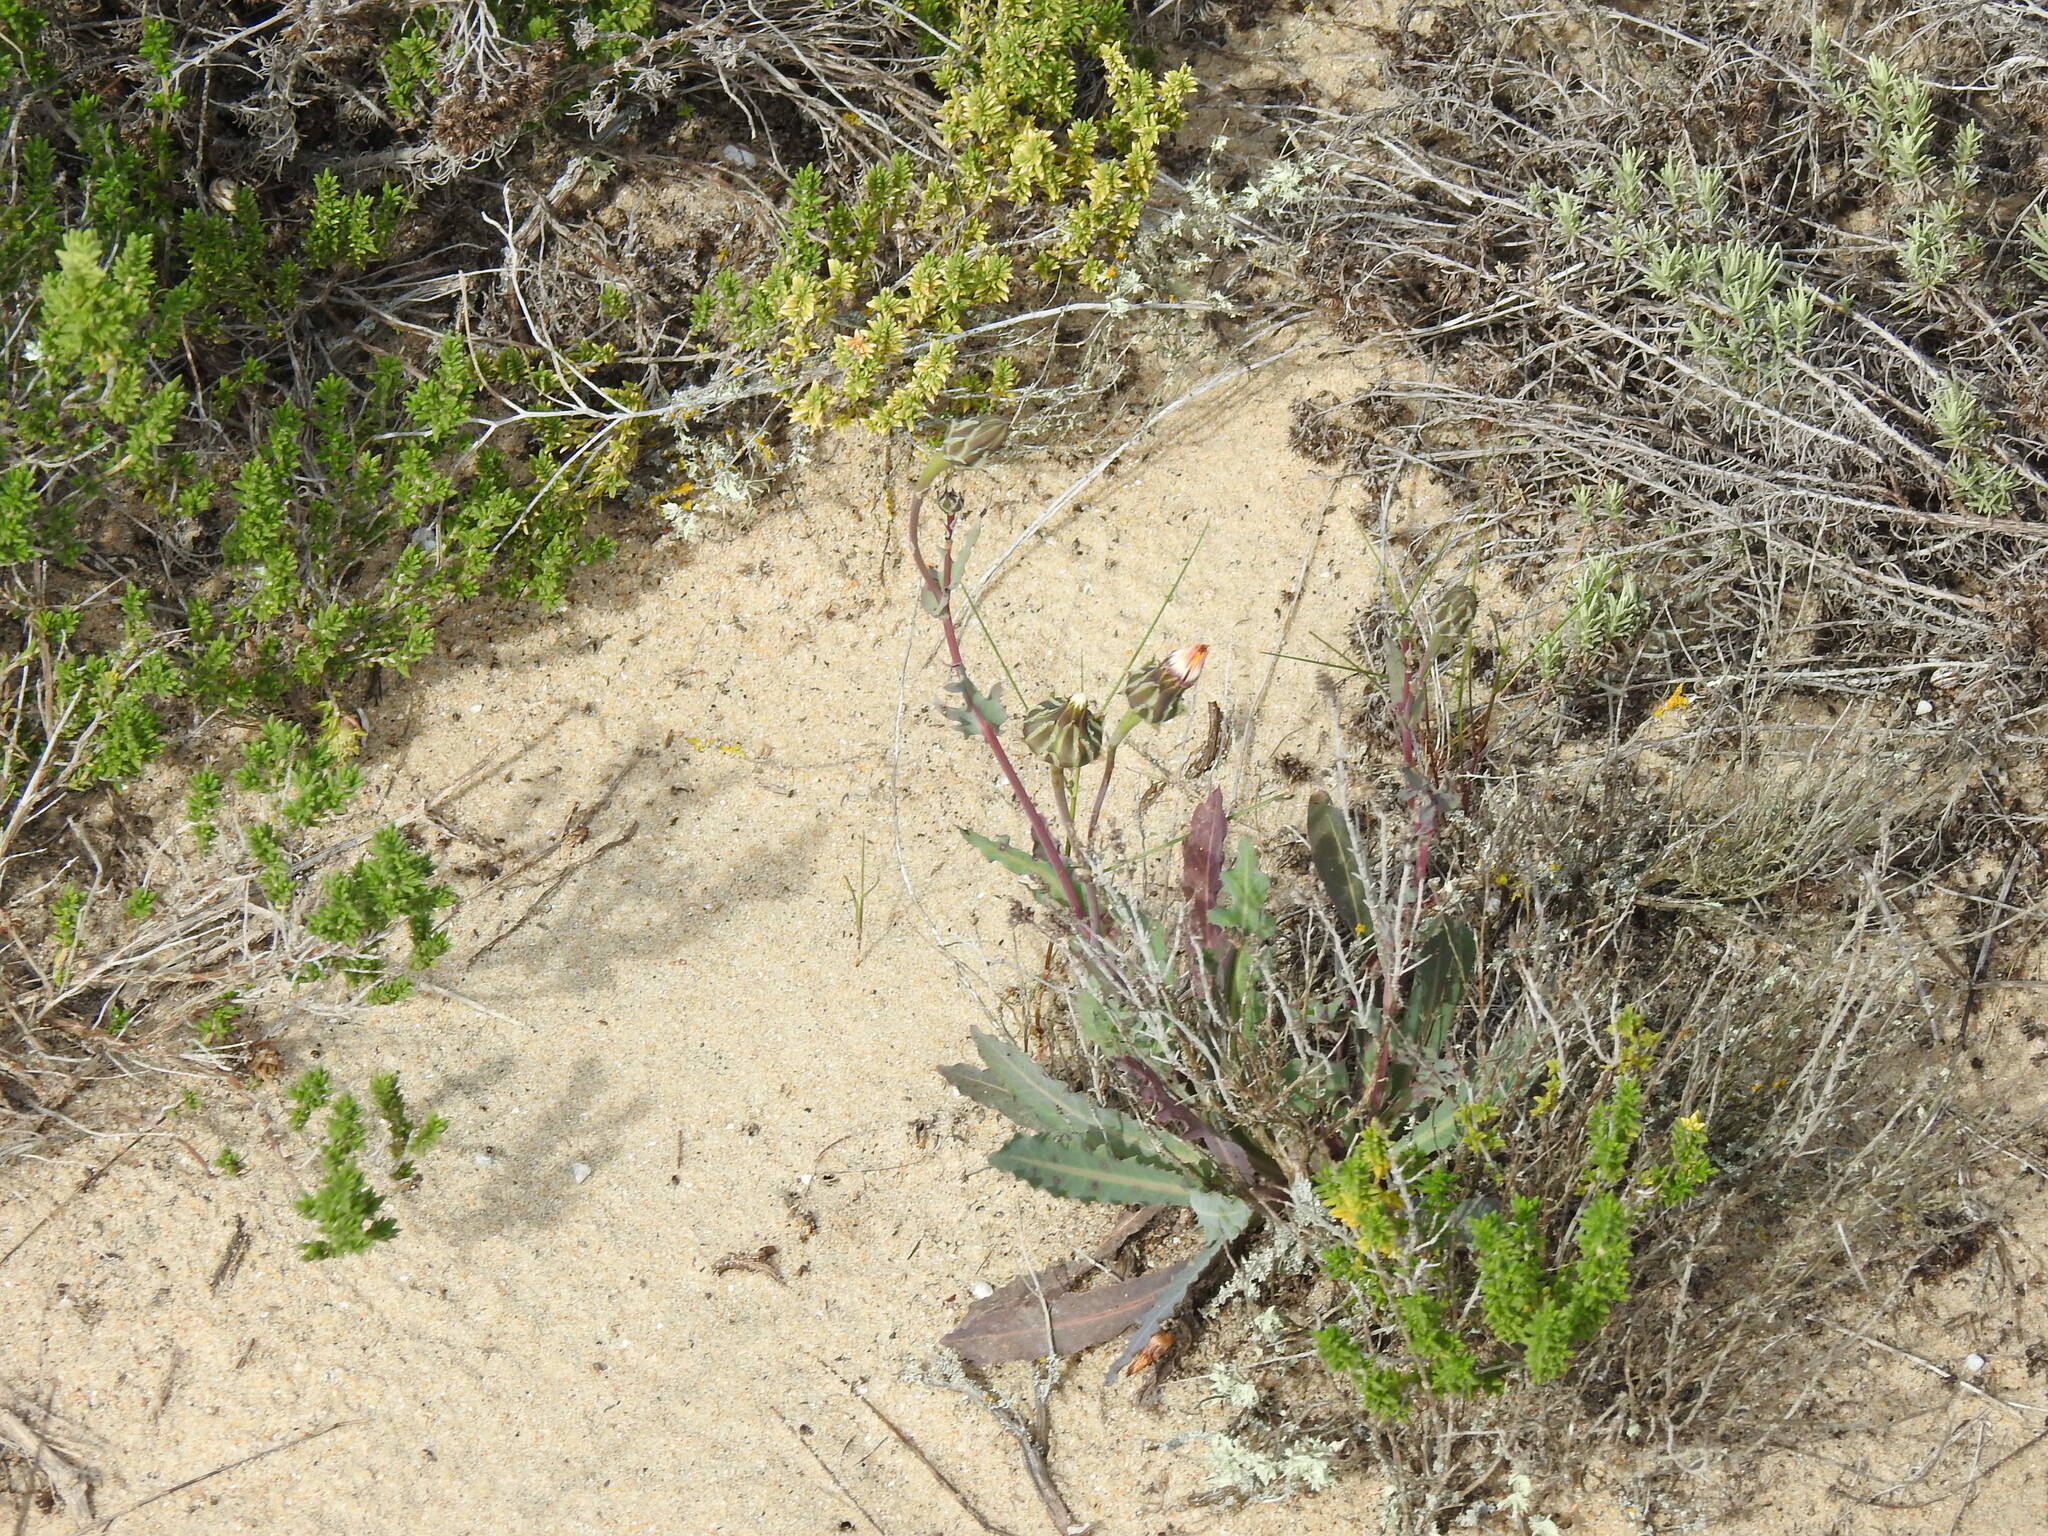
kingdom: Plantae
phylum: Tracheophyta
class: Magnoliopsida
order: Asterales
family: Asteraceae
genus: Reichardia
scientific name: Reichardia gaditana
